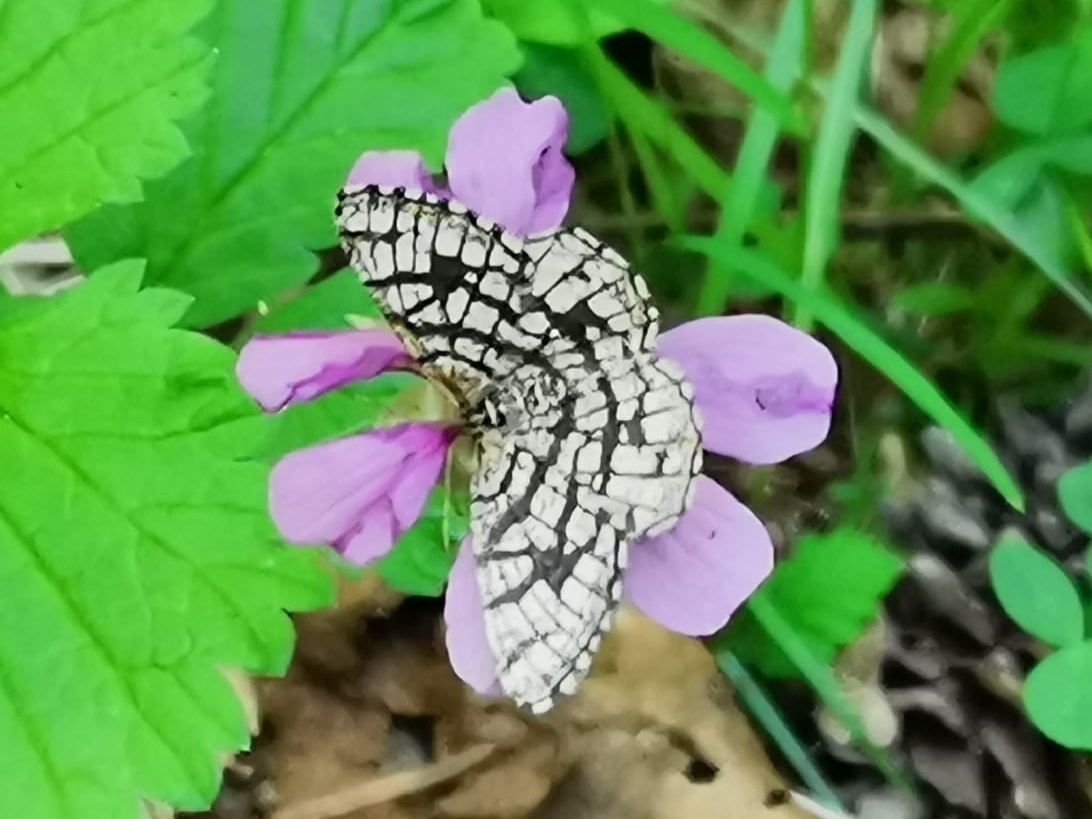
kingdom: Animalia
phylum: Arthropoda
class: Insecta
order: Lepidoptera
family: Geometridae
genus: Chiasmia
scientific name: Chiasmia clathrata
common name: Latticed heath
